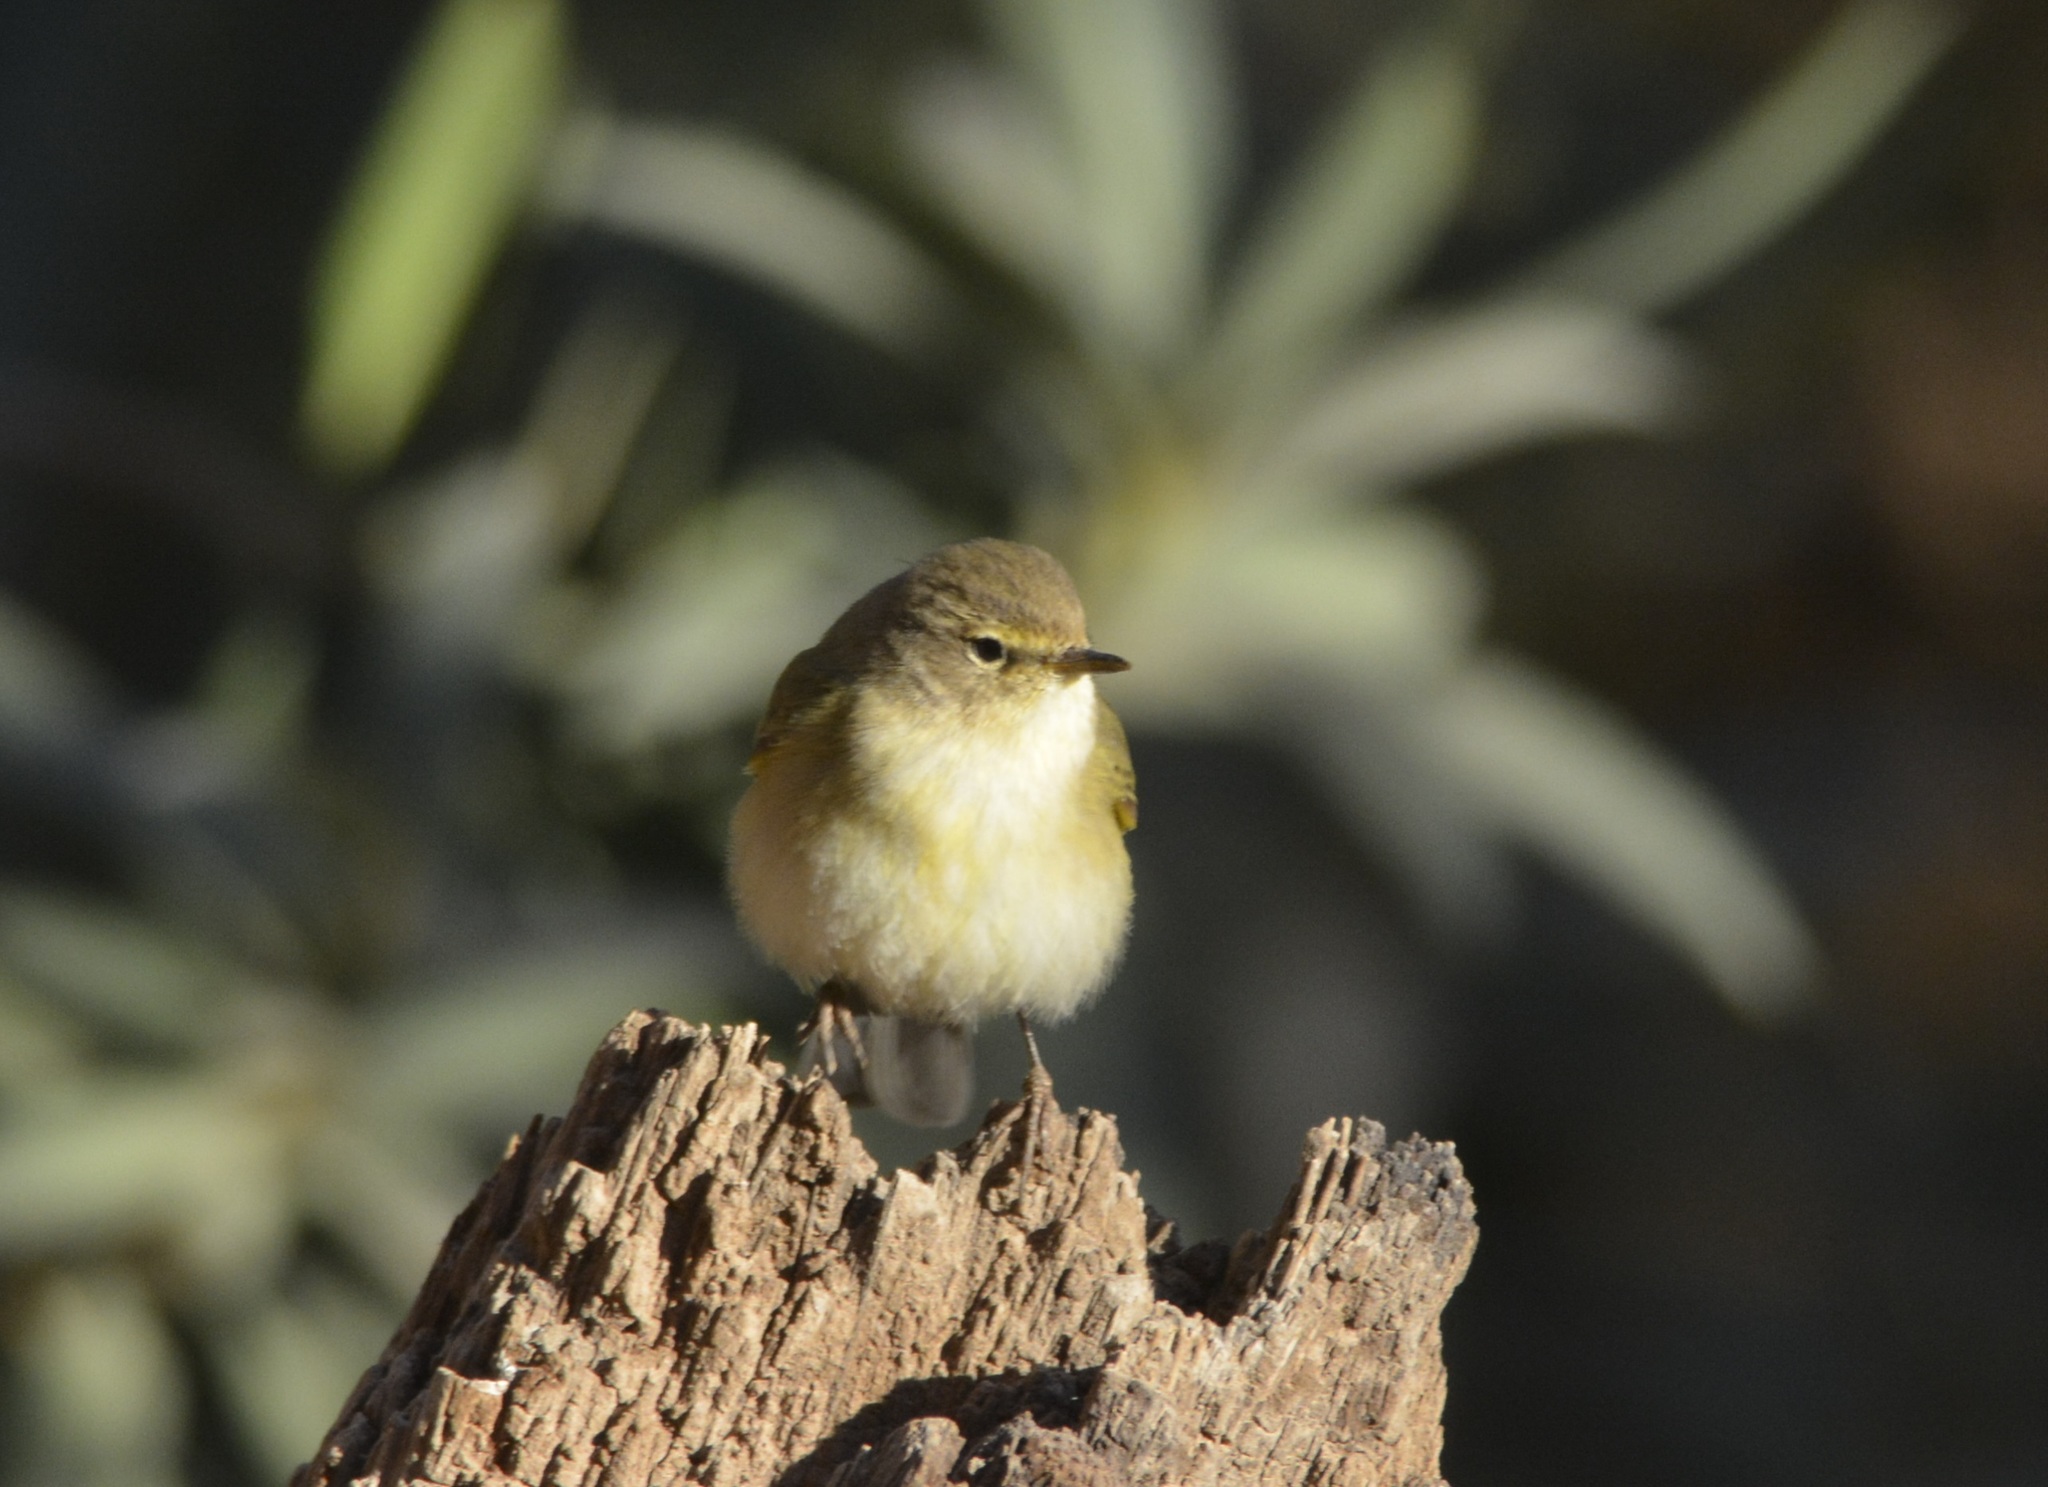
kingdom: Animalia
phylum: Chordata
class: Aves
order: Passeriformes
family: Phylloscopidae
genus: Phylloscopus
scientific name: Phylloscopus collybita
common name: Common chiffchaff
